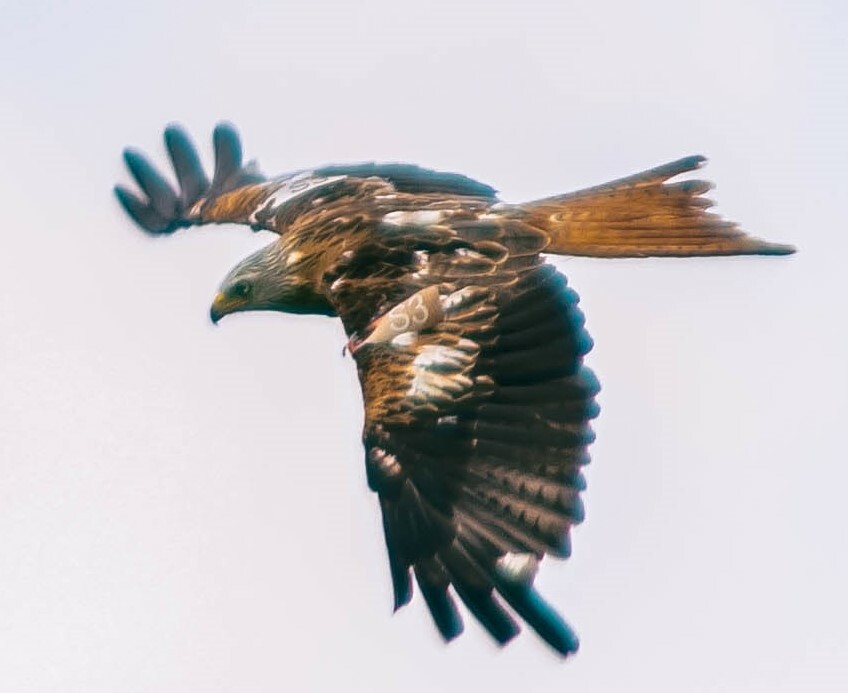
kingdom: Animalia
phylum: Chordata
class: Aves
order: Accipitriformes
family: Accipitridae
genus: Milvus
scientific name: Milvus milvus
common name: Red kite
